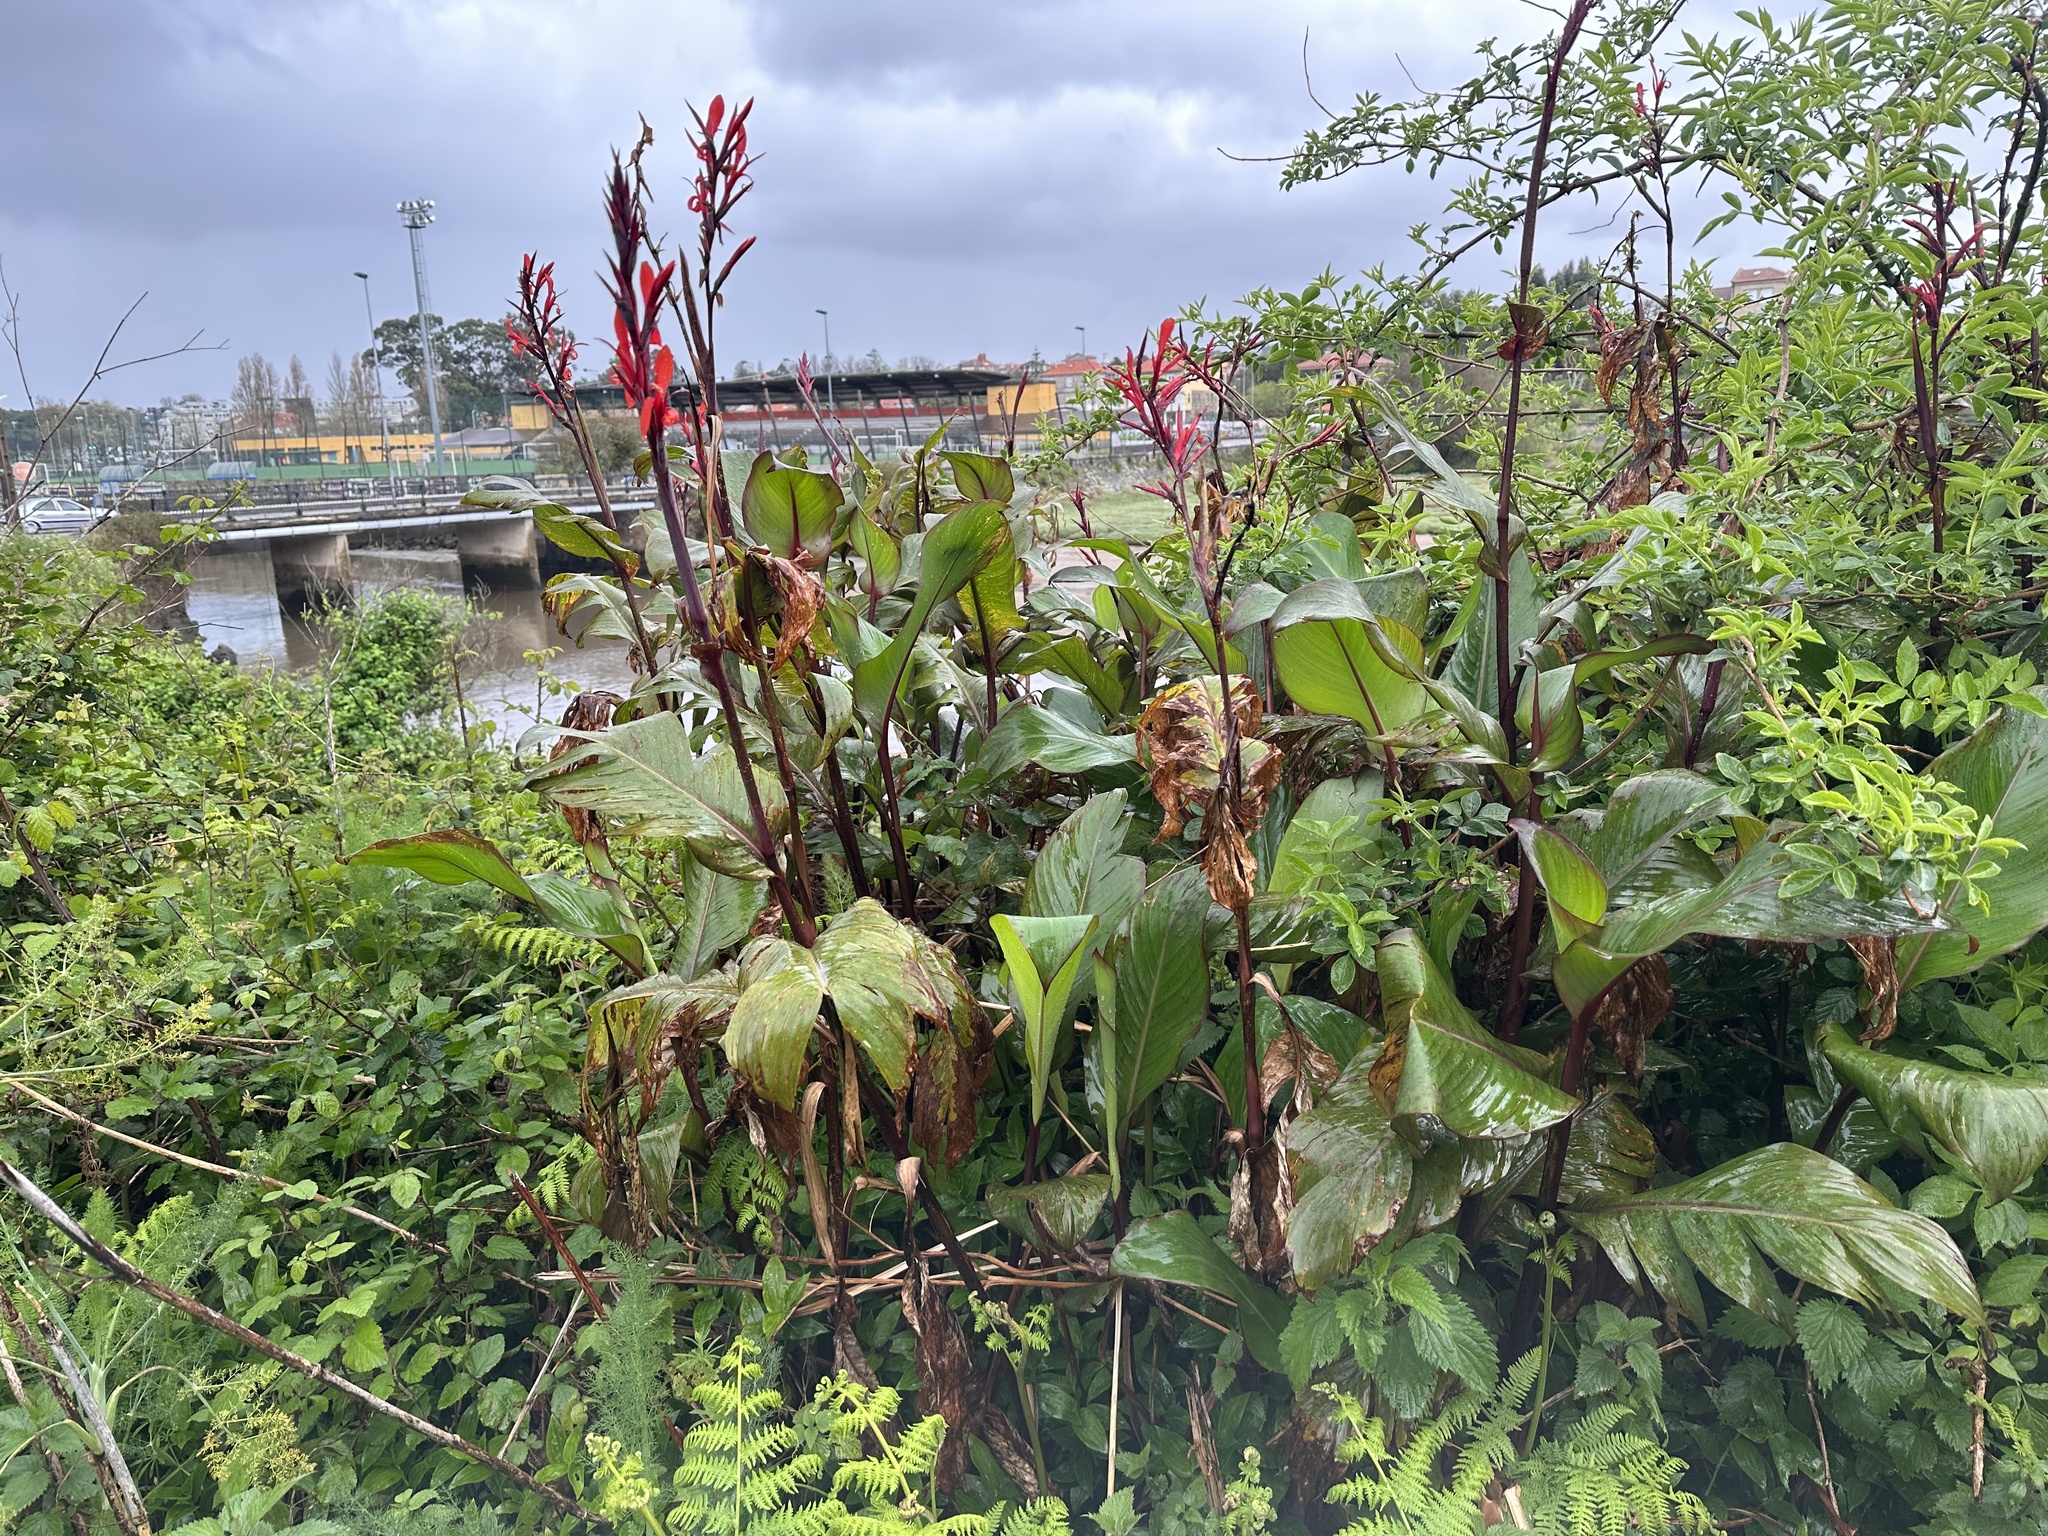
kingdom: Plantae
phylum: Tracheophyta
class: Liliopsida
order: Zingiberales
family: Cannaceae
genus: Canna
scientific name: Canna indica
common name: Indian shot
